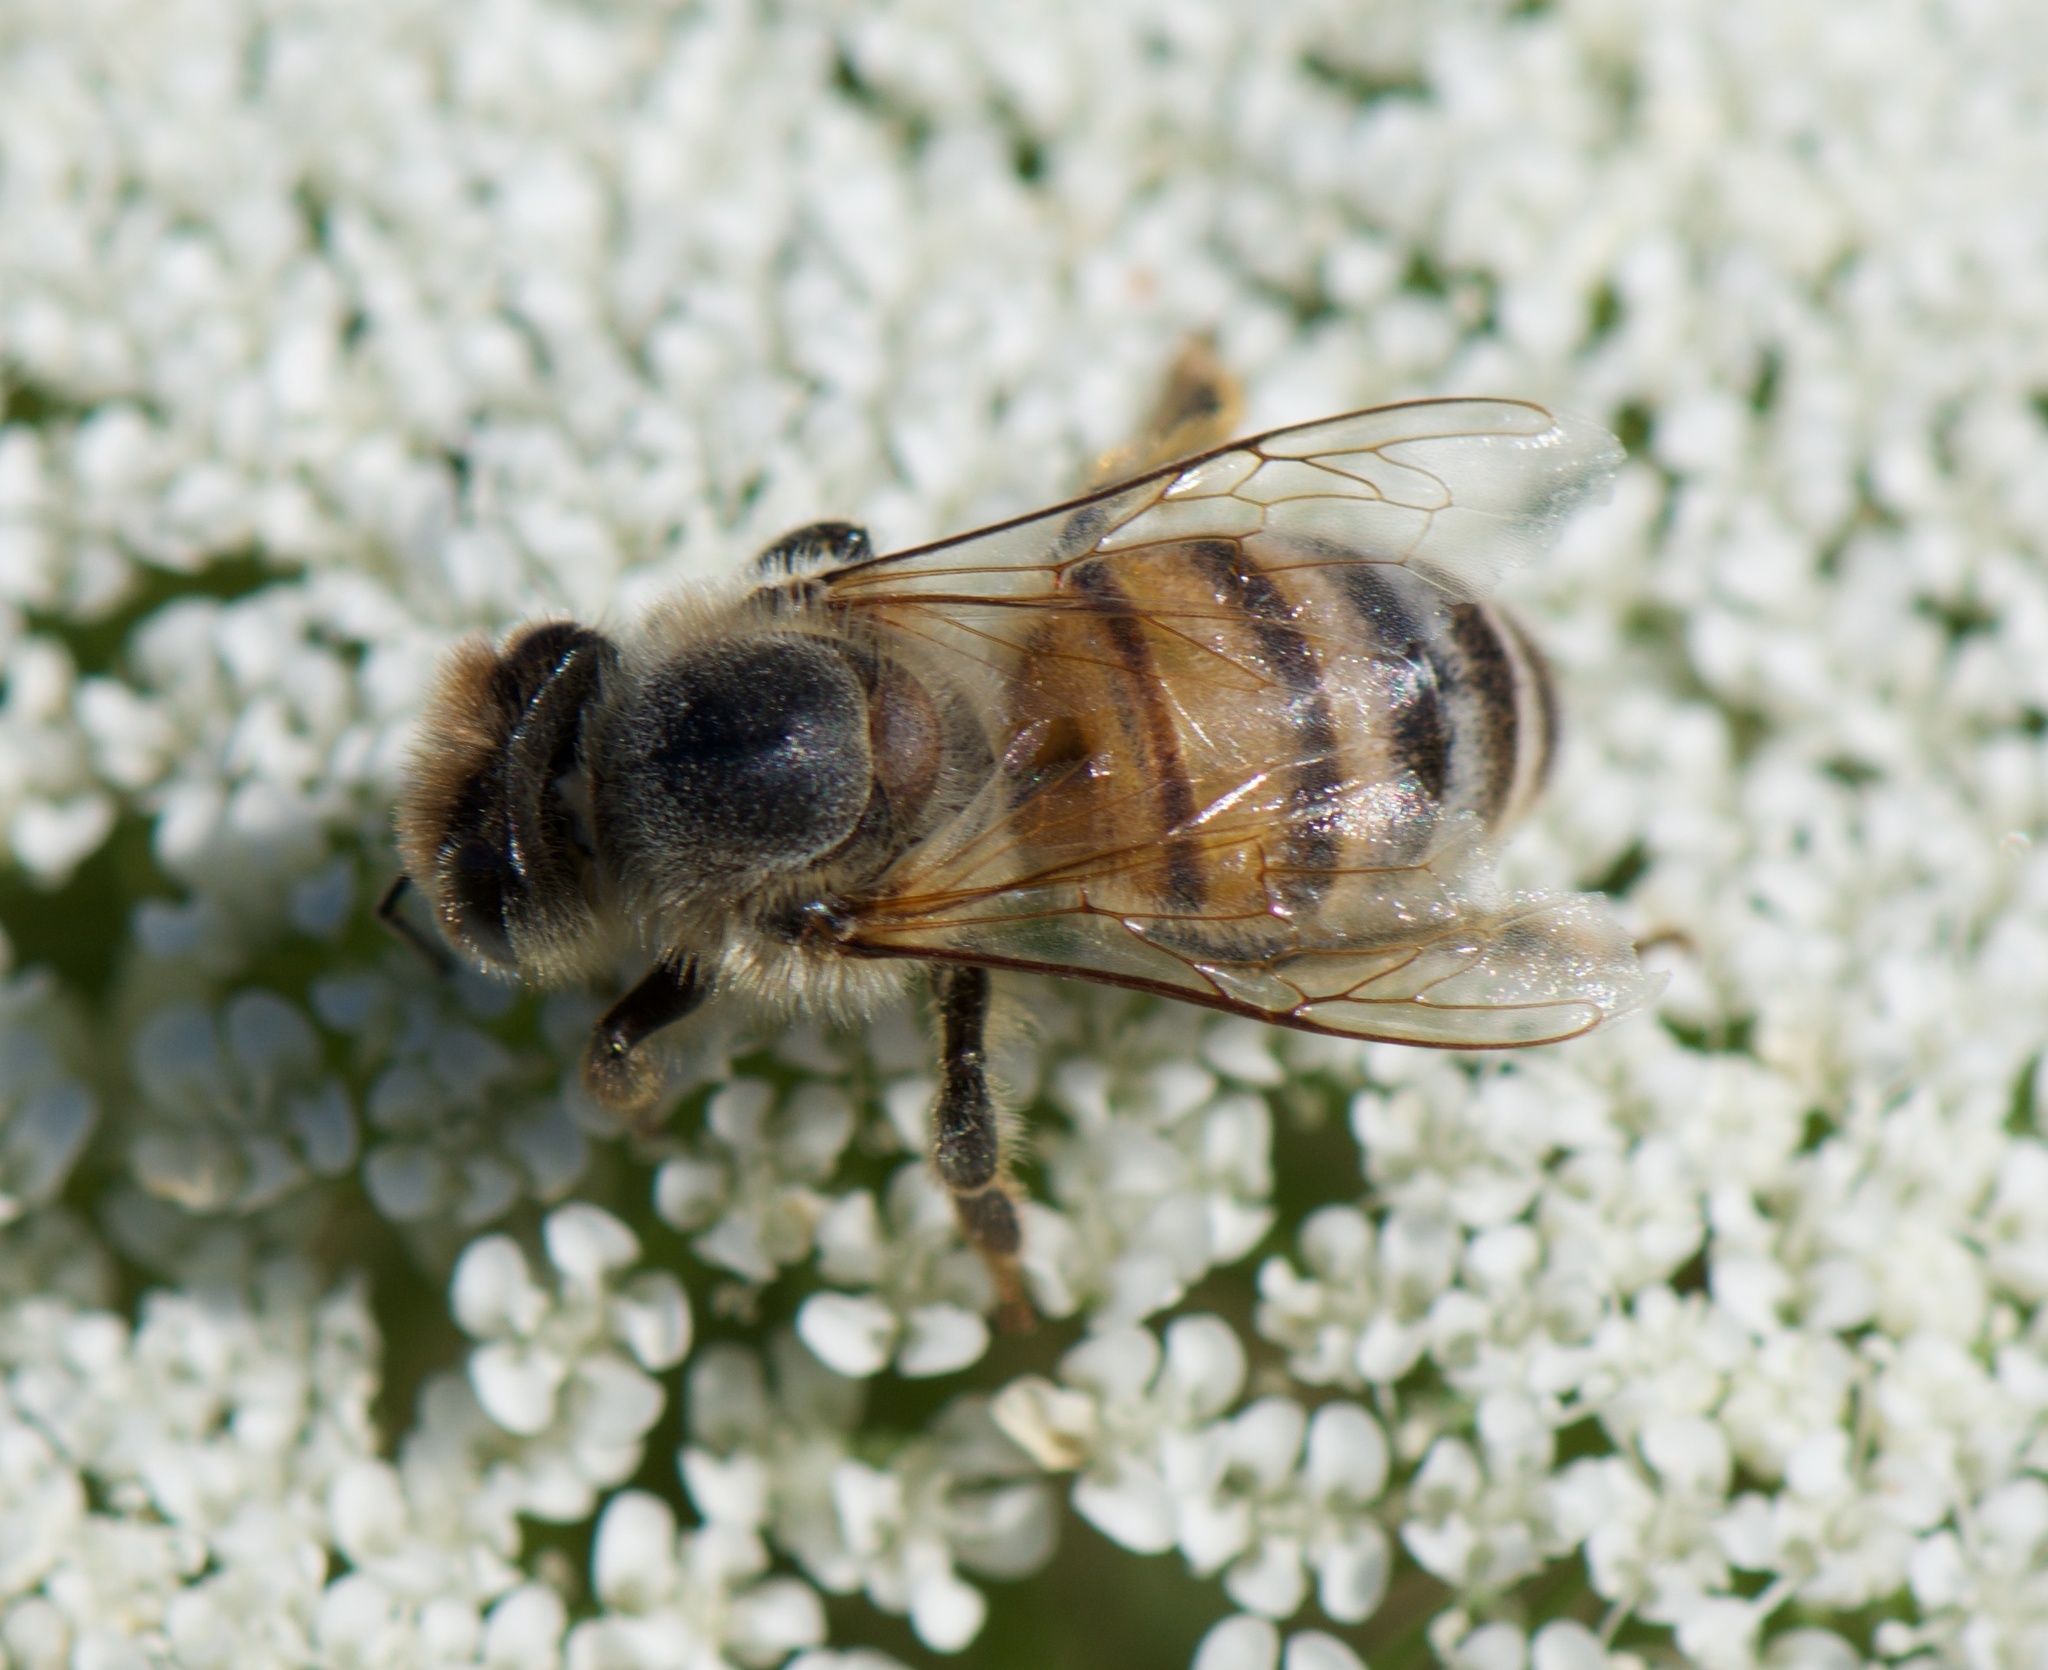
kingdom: Animalia
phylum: Arthropoda
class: Insecta
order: Hymenoptera
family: Apidae
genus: Apis
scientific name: Apis mellifera
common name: Honey bee
